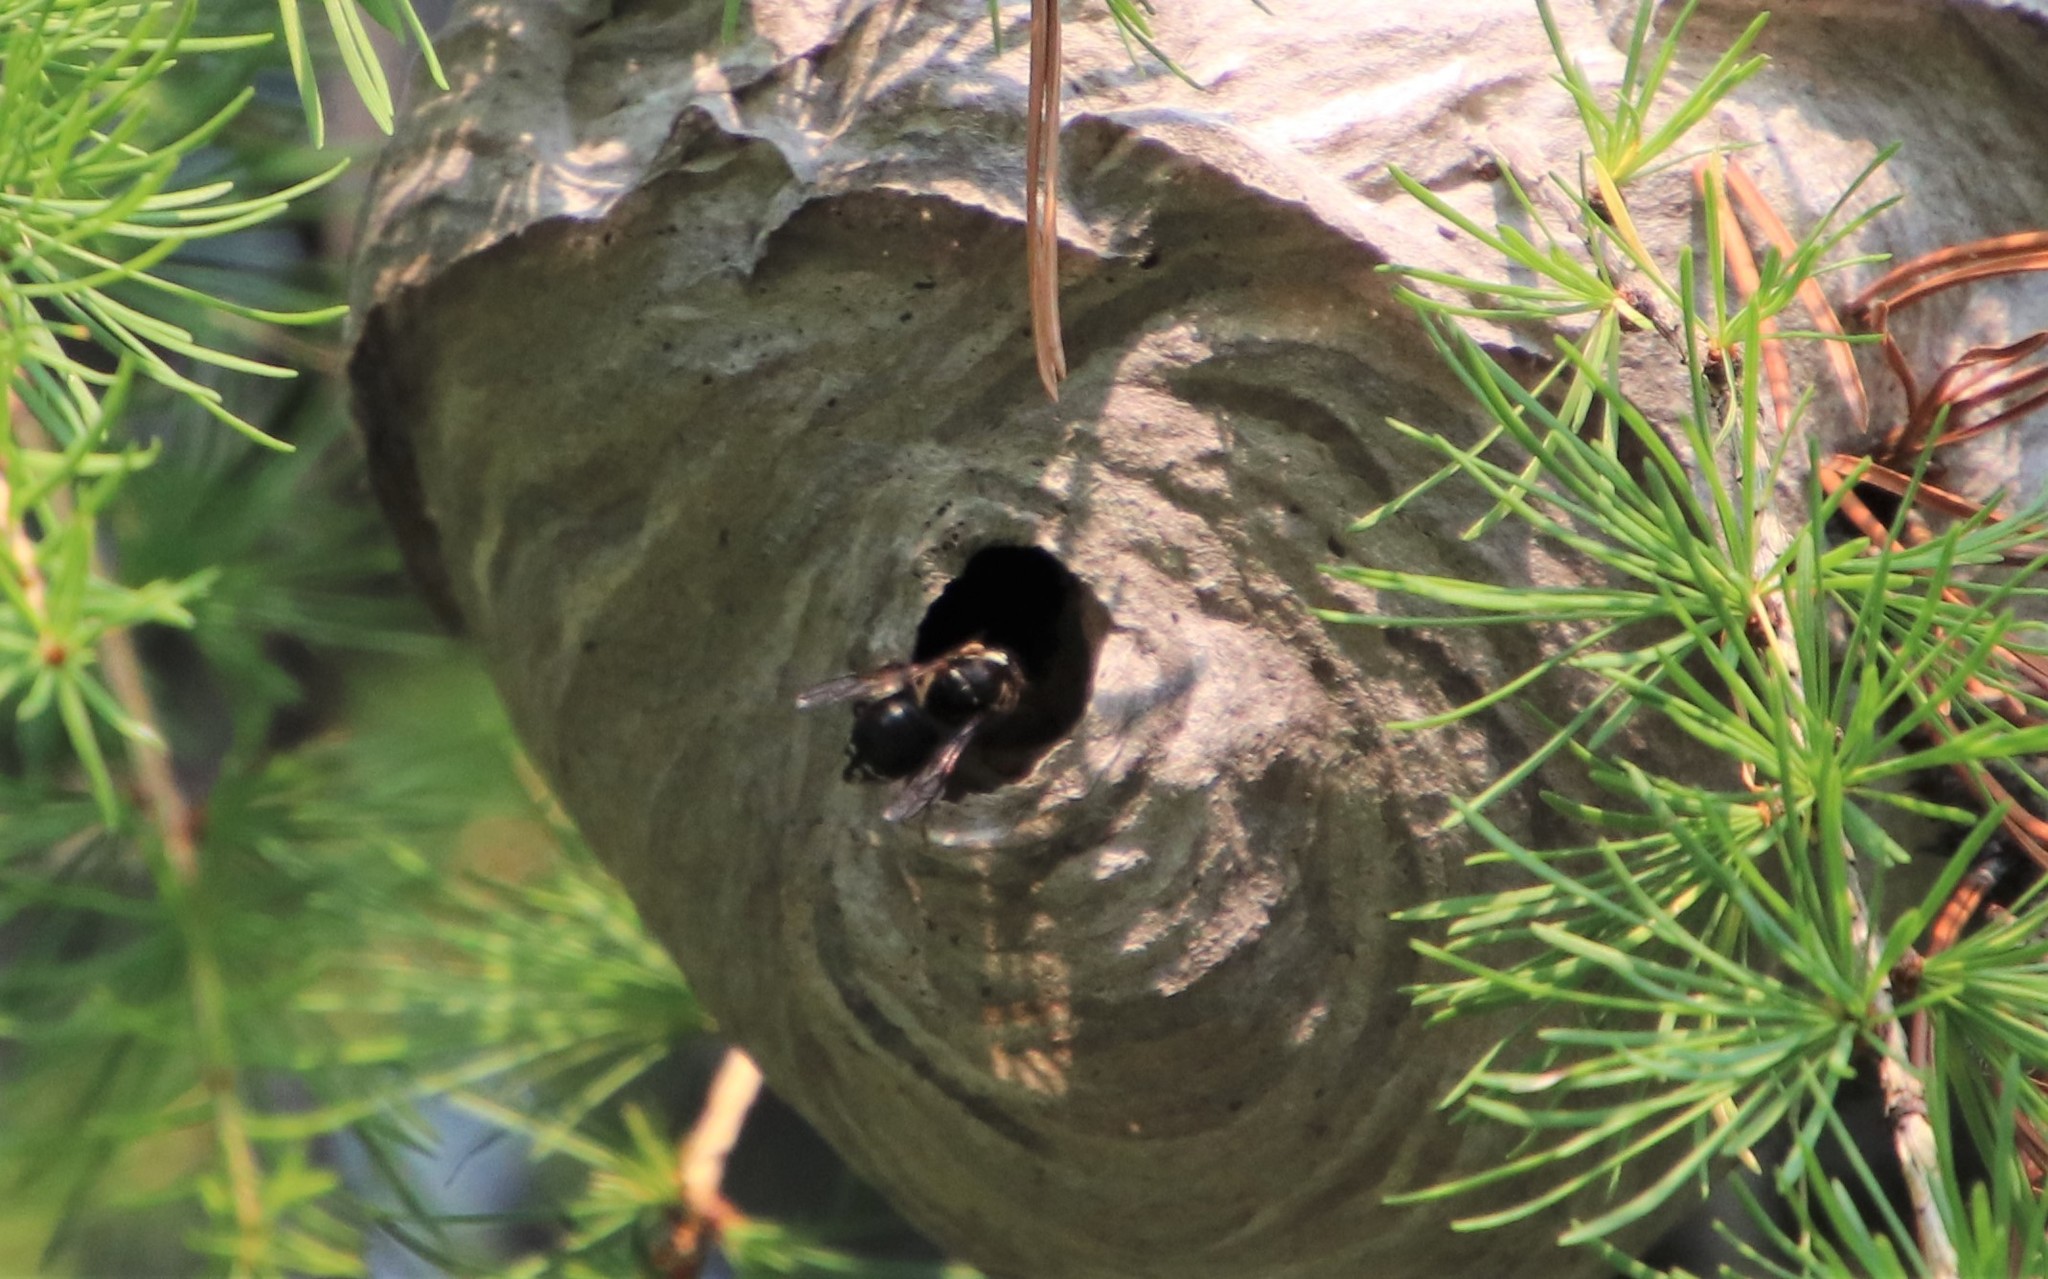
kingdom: Animalia
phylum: Arthropoda
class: Insecta
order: Hymenoptera
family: Vespidae
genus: Dolichovespula
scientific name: Dolichovespula maculata
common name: Bald-faced hornet
